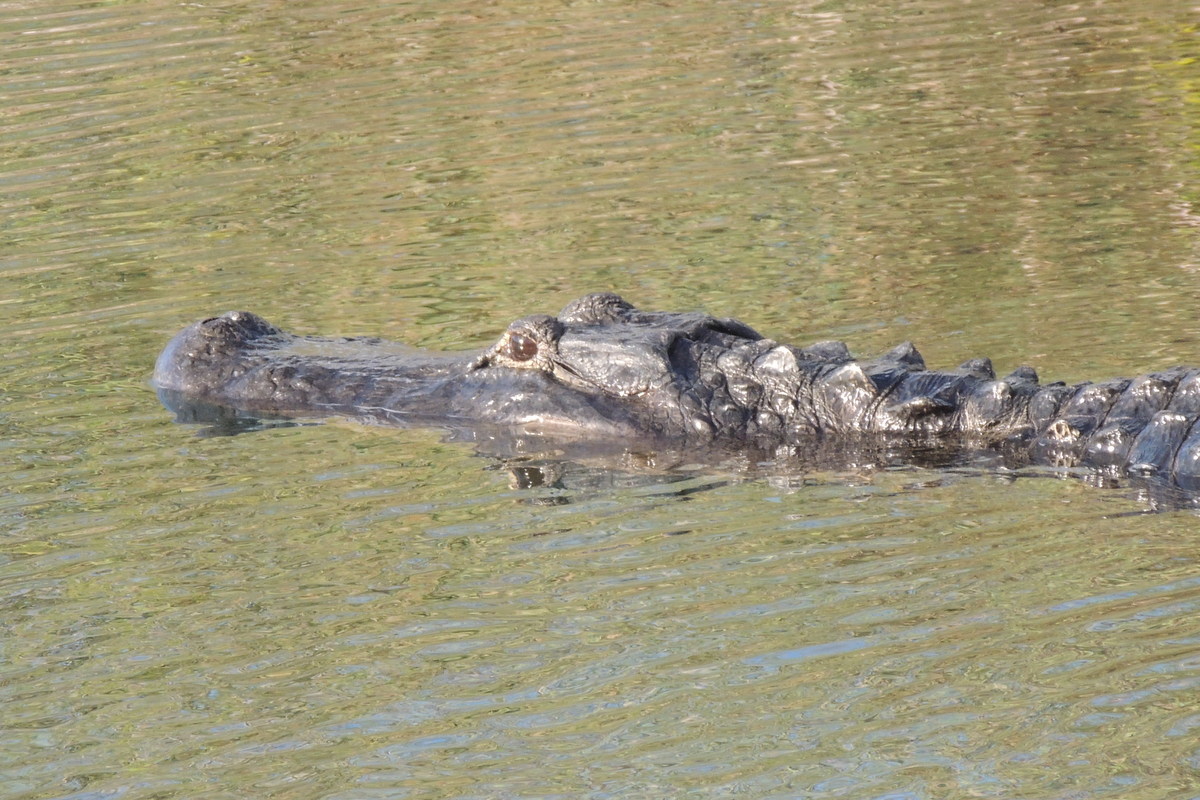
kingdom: Animalia
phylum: Chordata
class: Crocodylia
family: Alligatoridae
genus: Alligator
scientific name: Alligator mississippiensis
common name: American alligator
